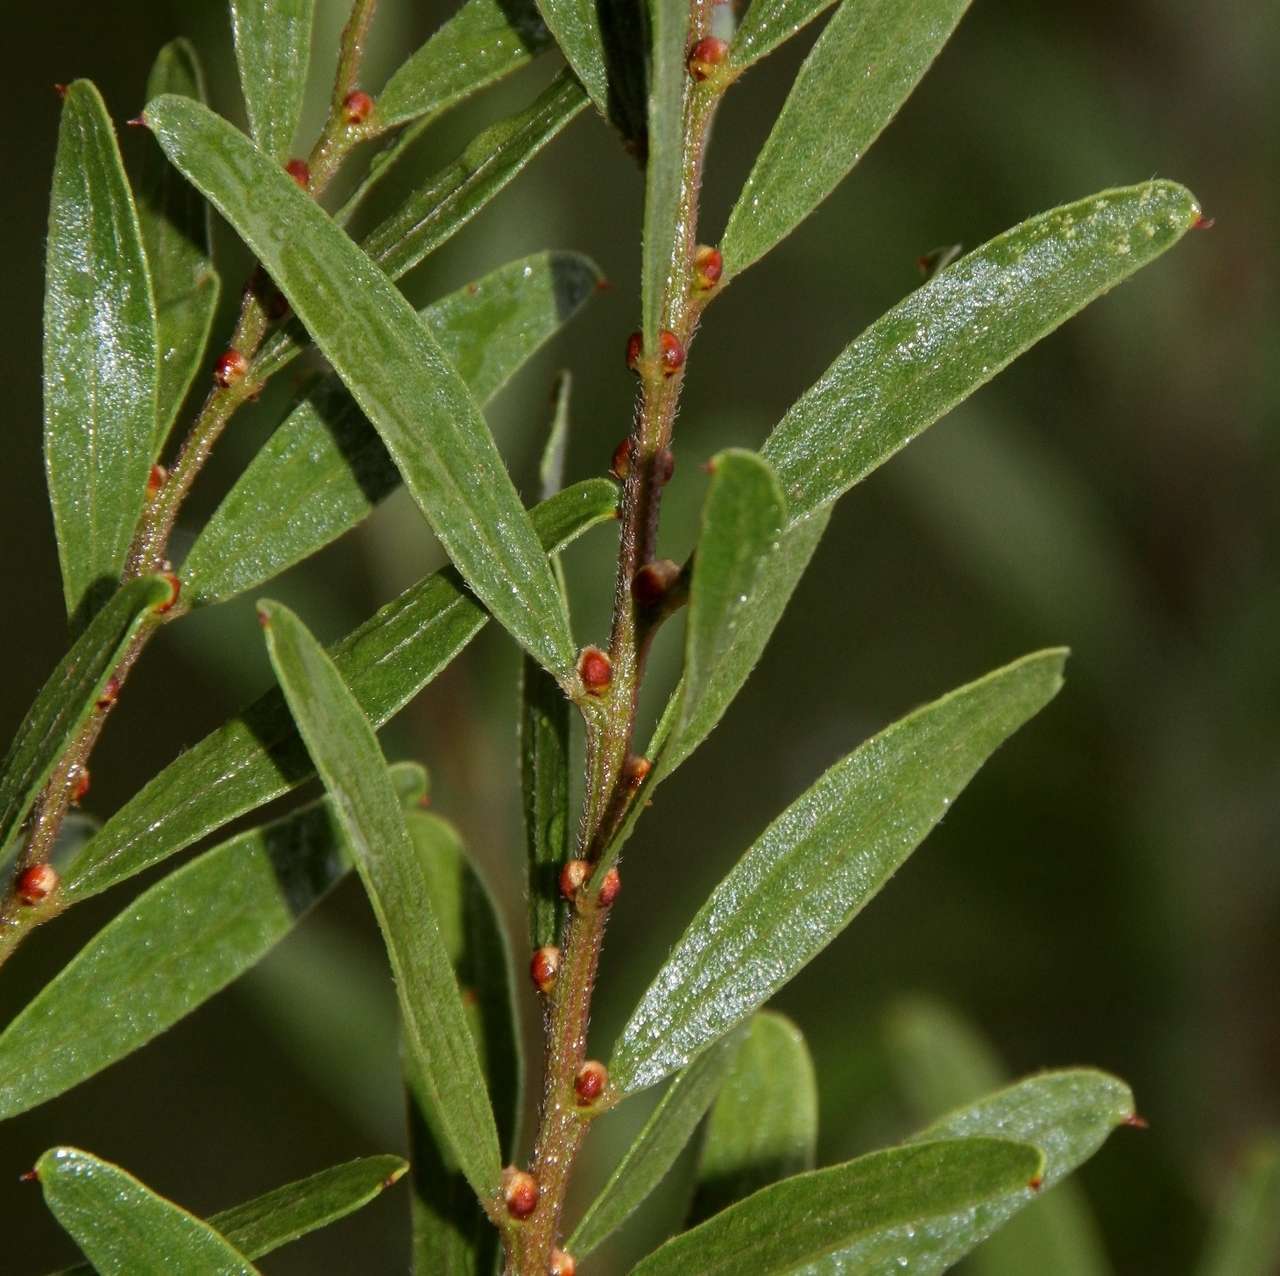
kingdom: Plantae
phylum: Tracheophyta
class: Magnoliopsida
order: Fabales
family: Fabaceae
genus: Acacia
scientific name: Acacia rostriformis
